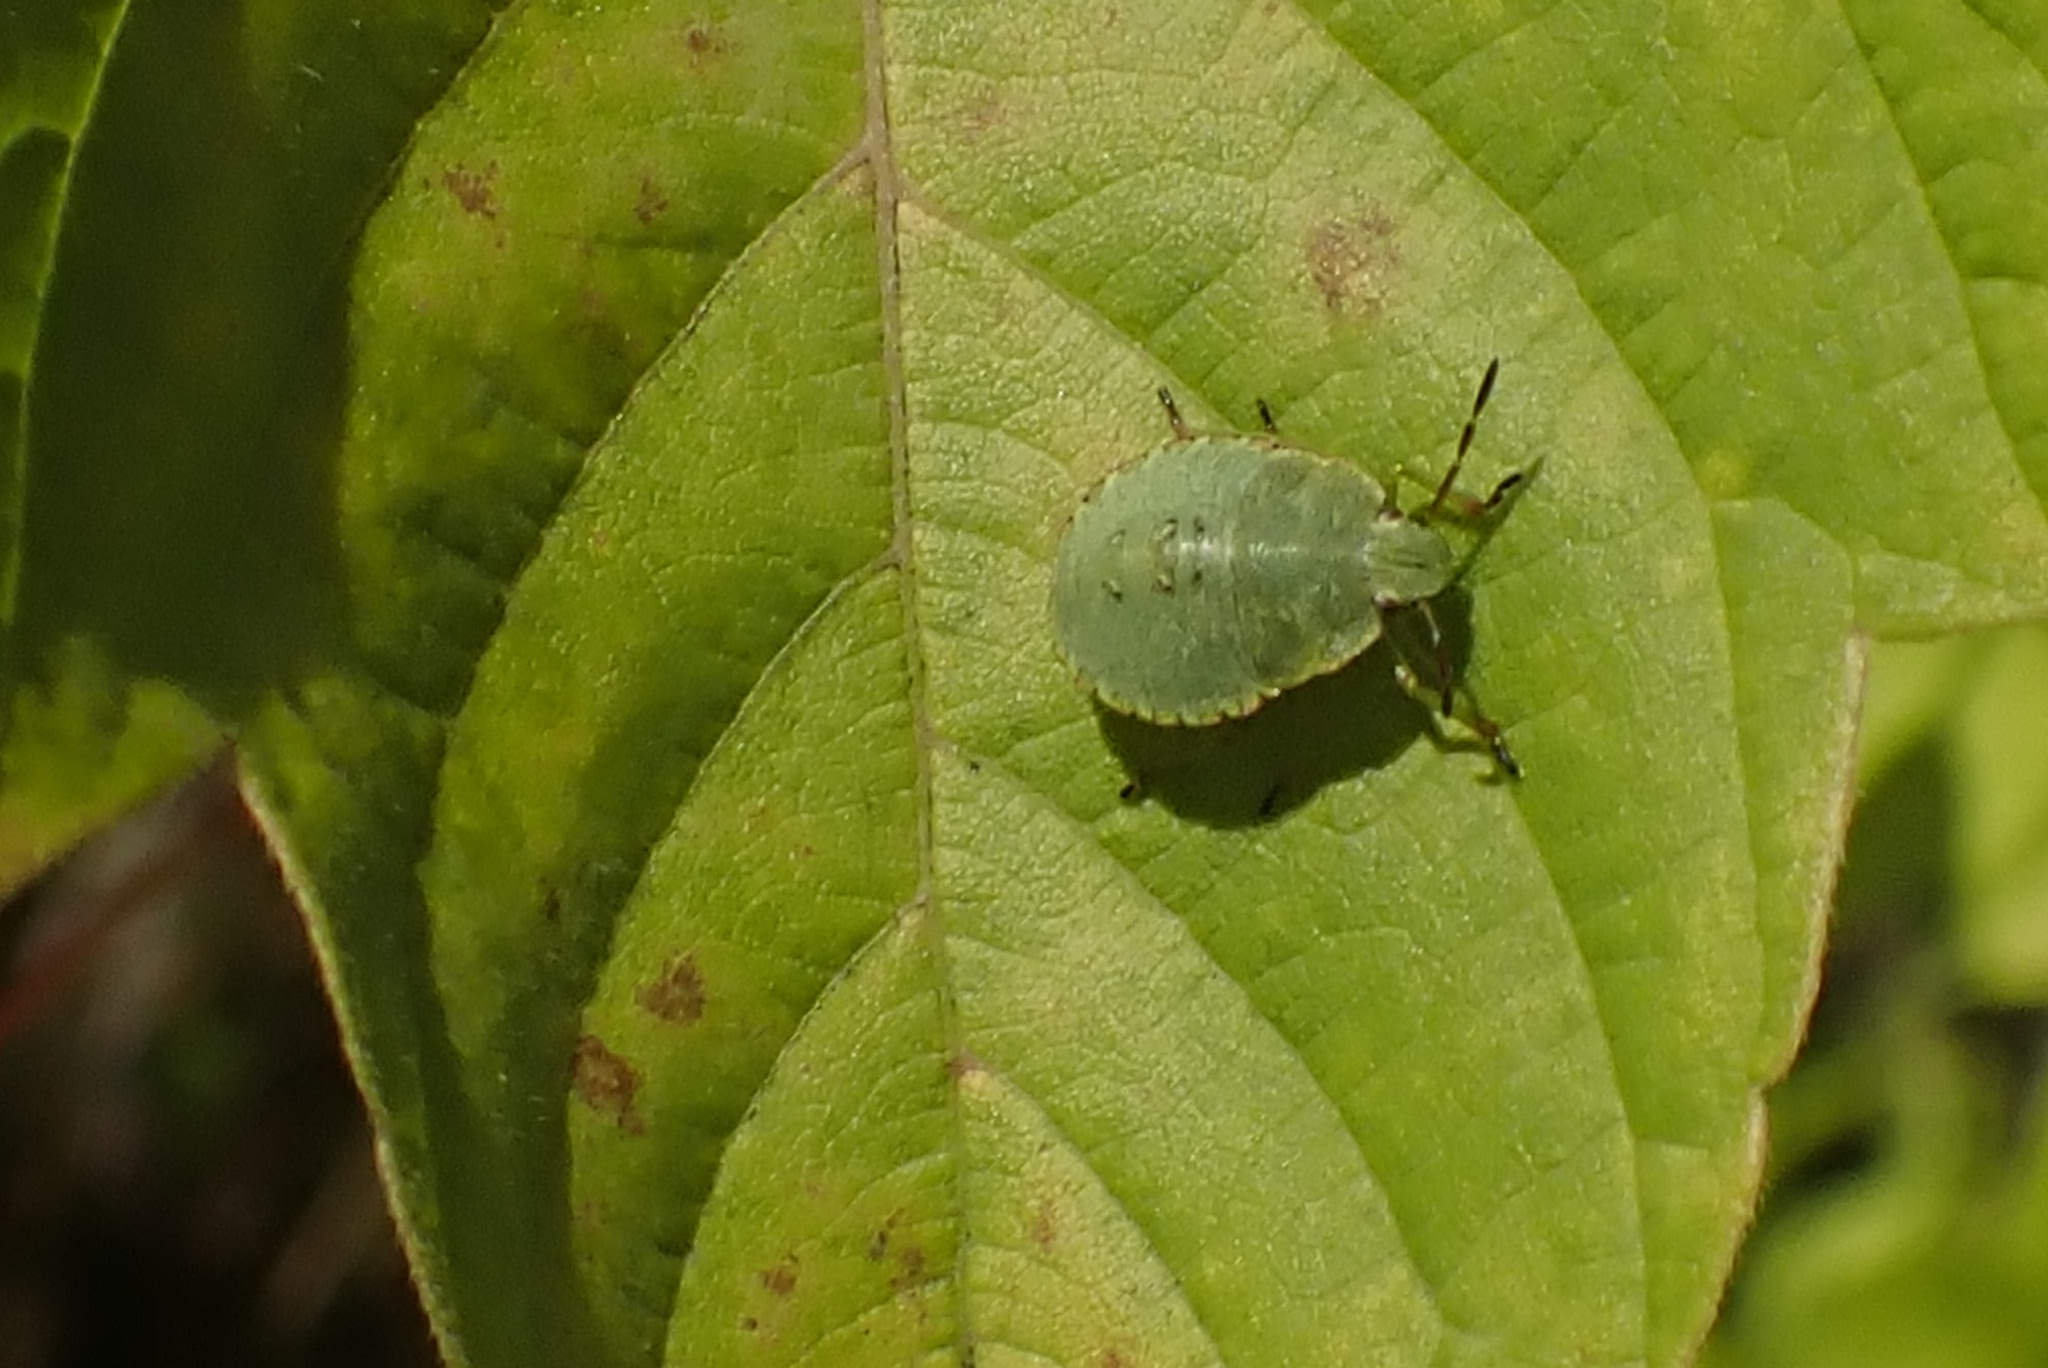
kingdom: Animalia
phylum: Arthropoda
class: Insecta
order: Hemiptera
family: Pentatomidae
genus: Palomena
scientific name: Palomena prasina
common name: Green shieldbug
